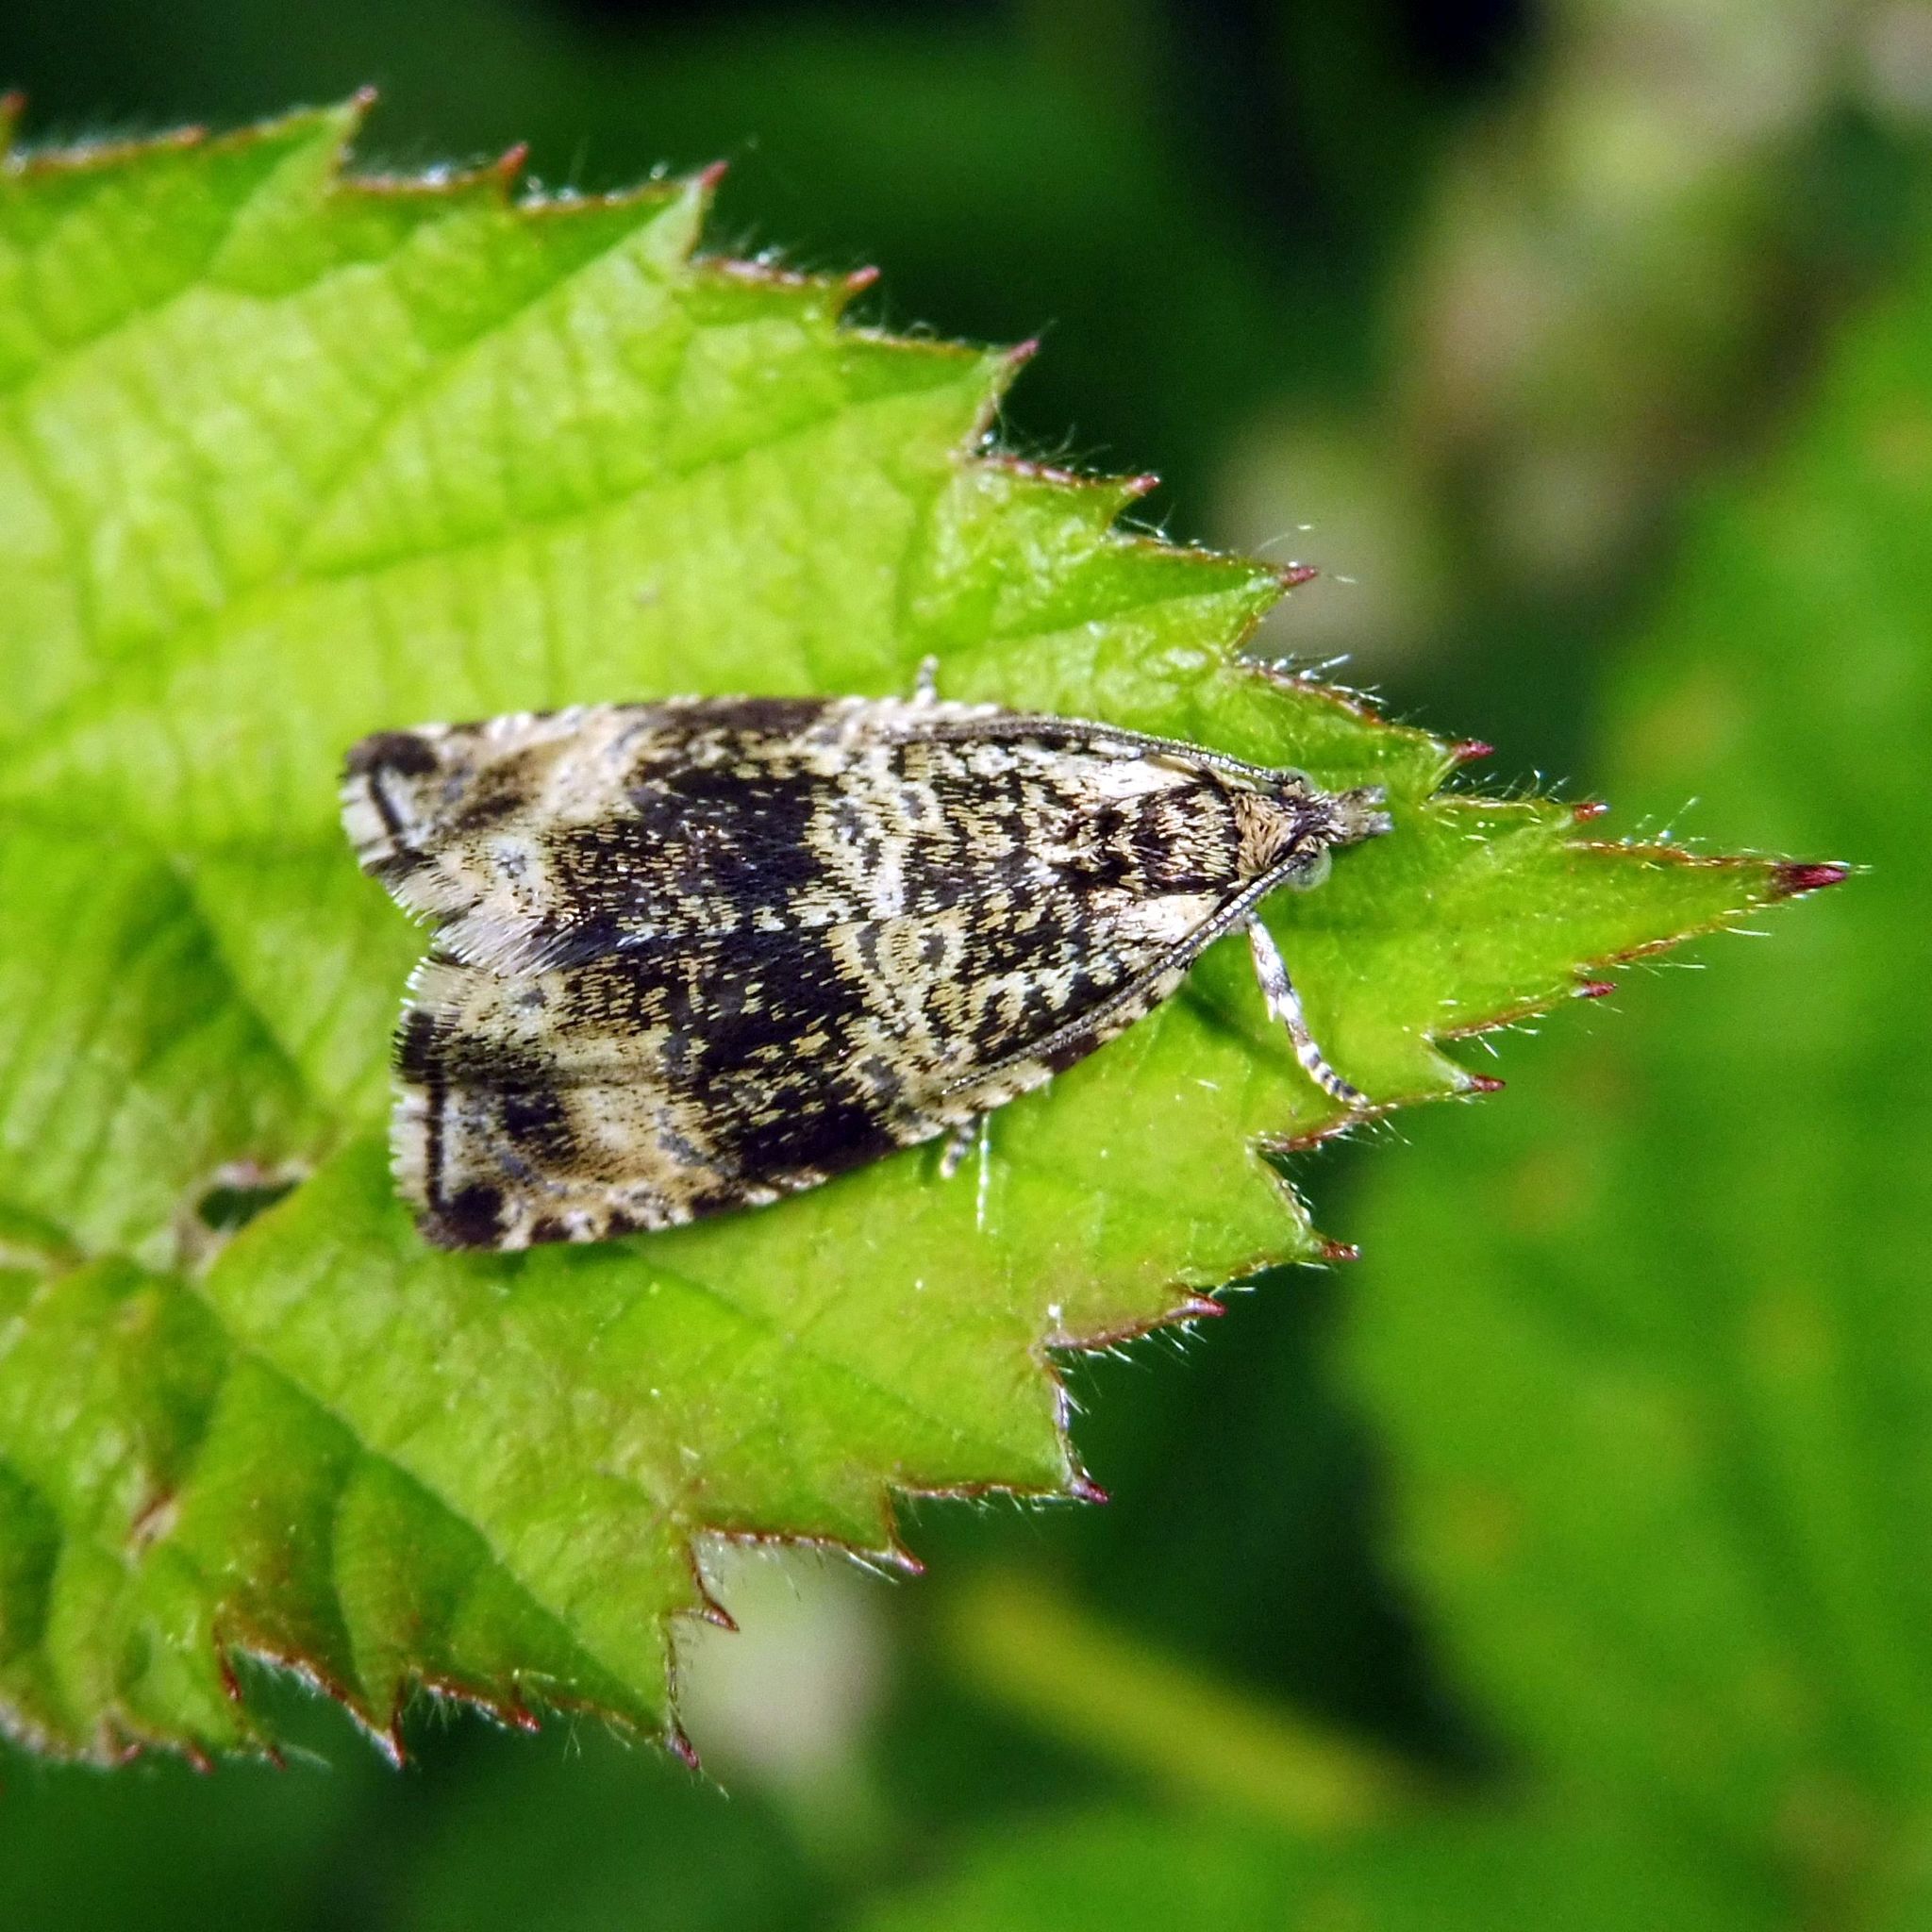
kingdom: Animalia
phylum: Arthropoda
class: Insecta
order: Lepidoptera
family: Tortricidae
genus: Syricoris
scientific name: Syricoris lacunana
